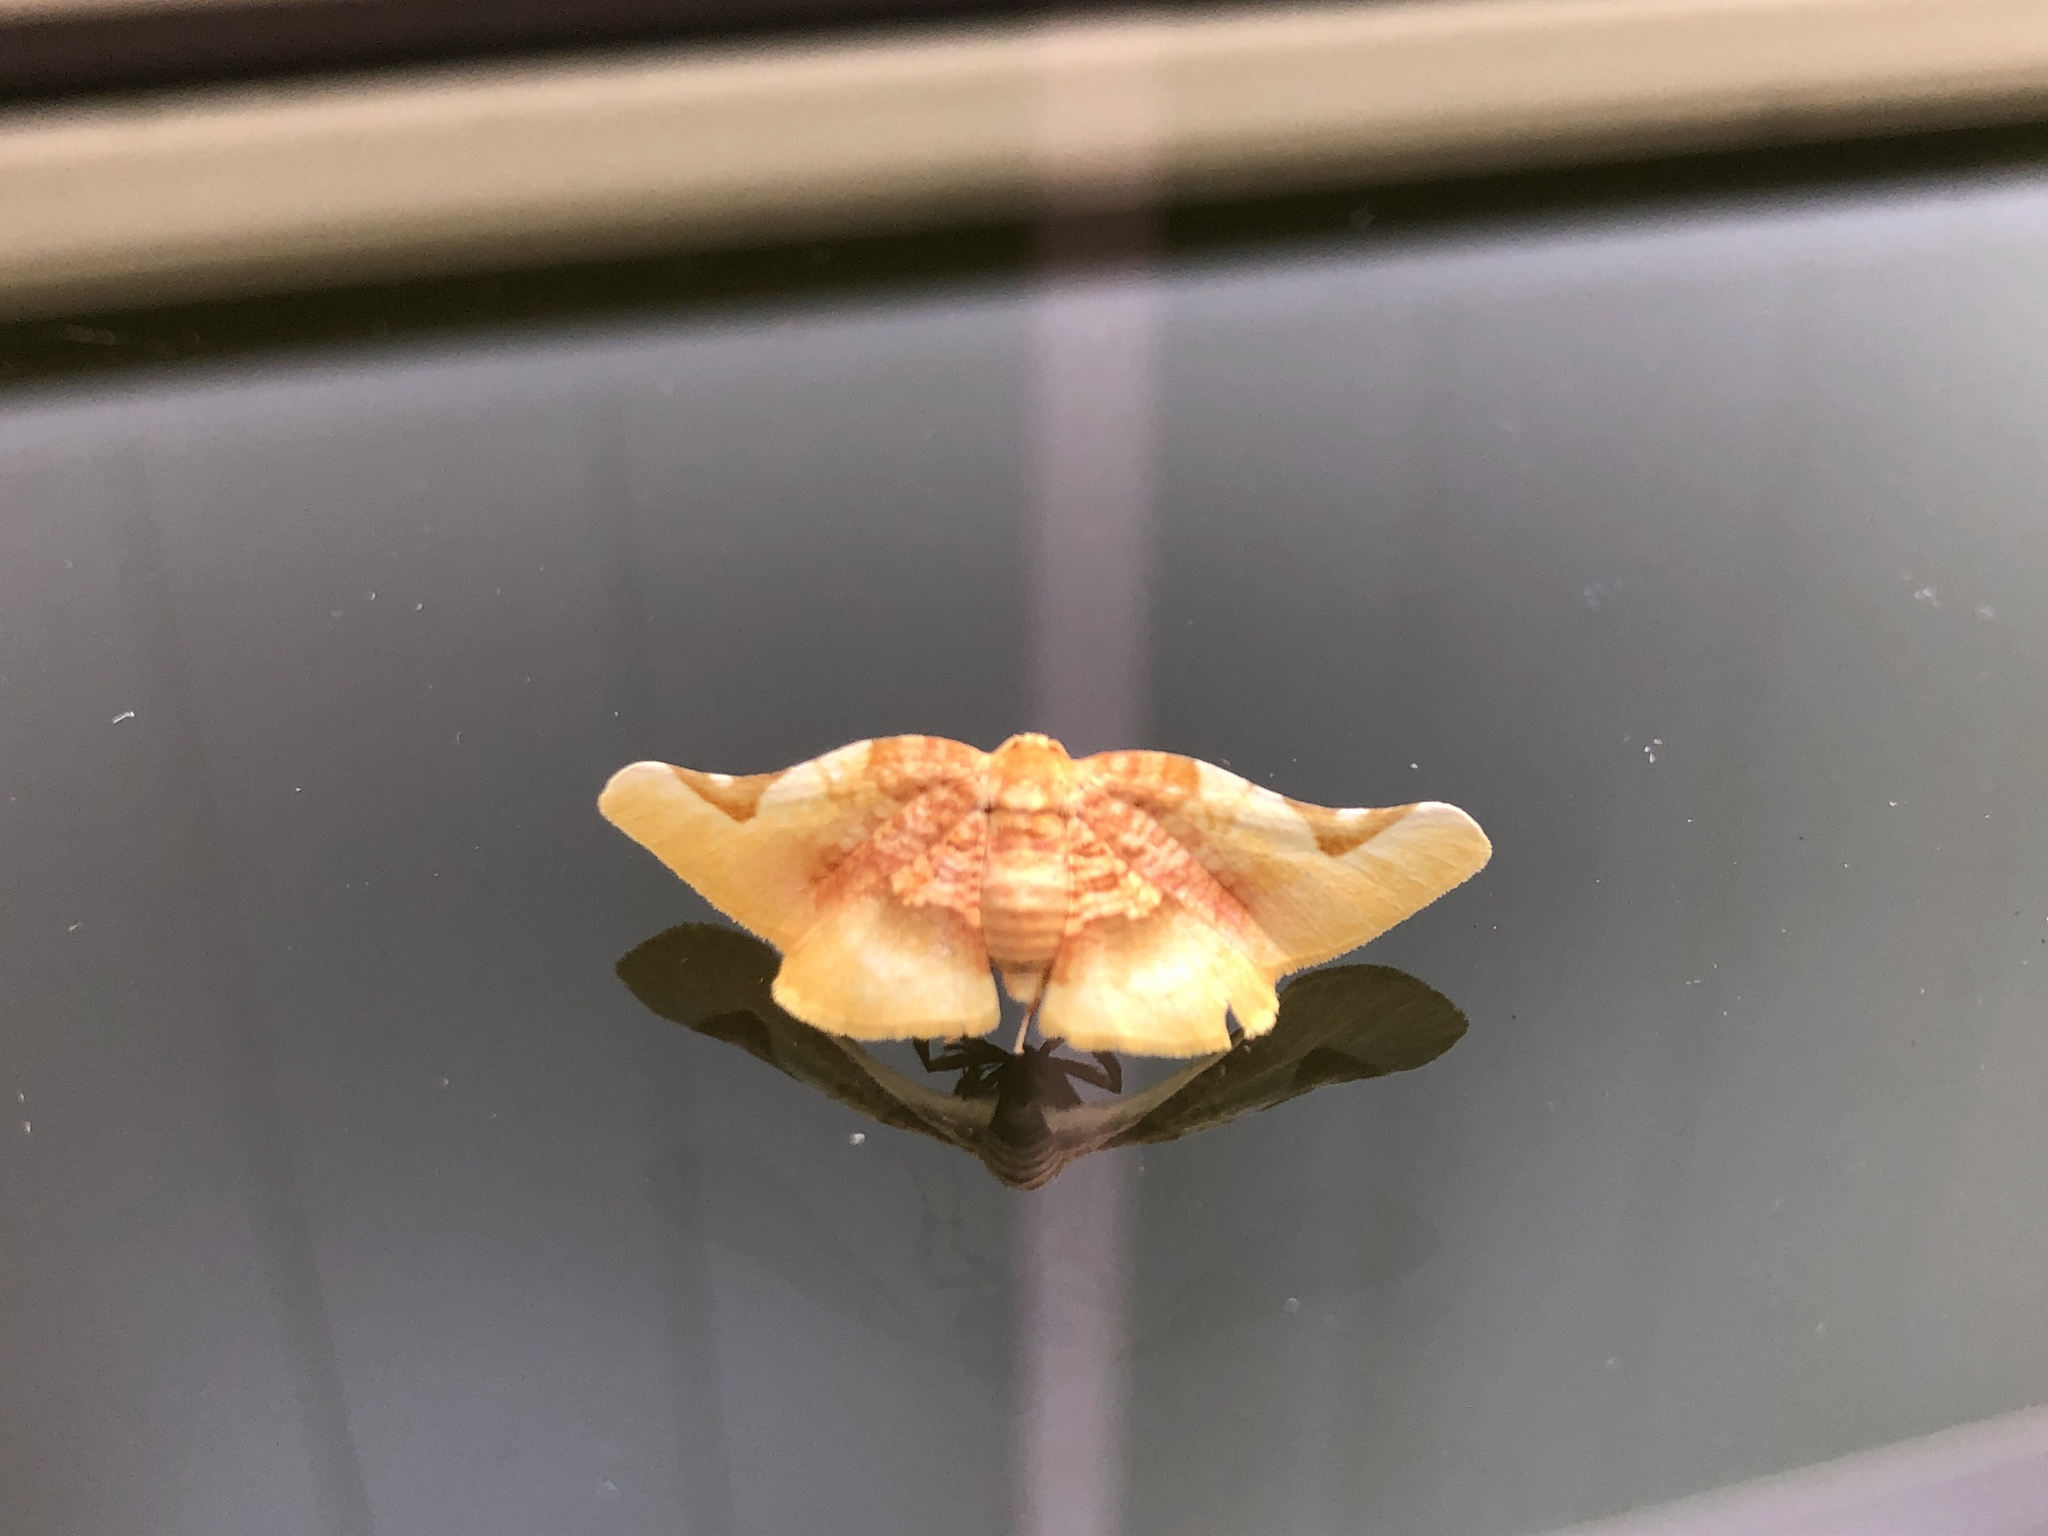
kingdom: Animalia
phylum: Arthropoda
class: Insecta
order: Lepidoptera
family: Thyrididae
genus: Pyrinioides
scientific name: Pyrinioides sinuosa
